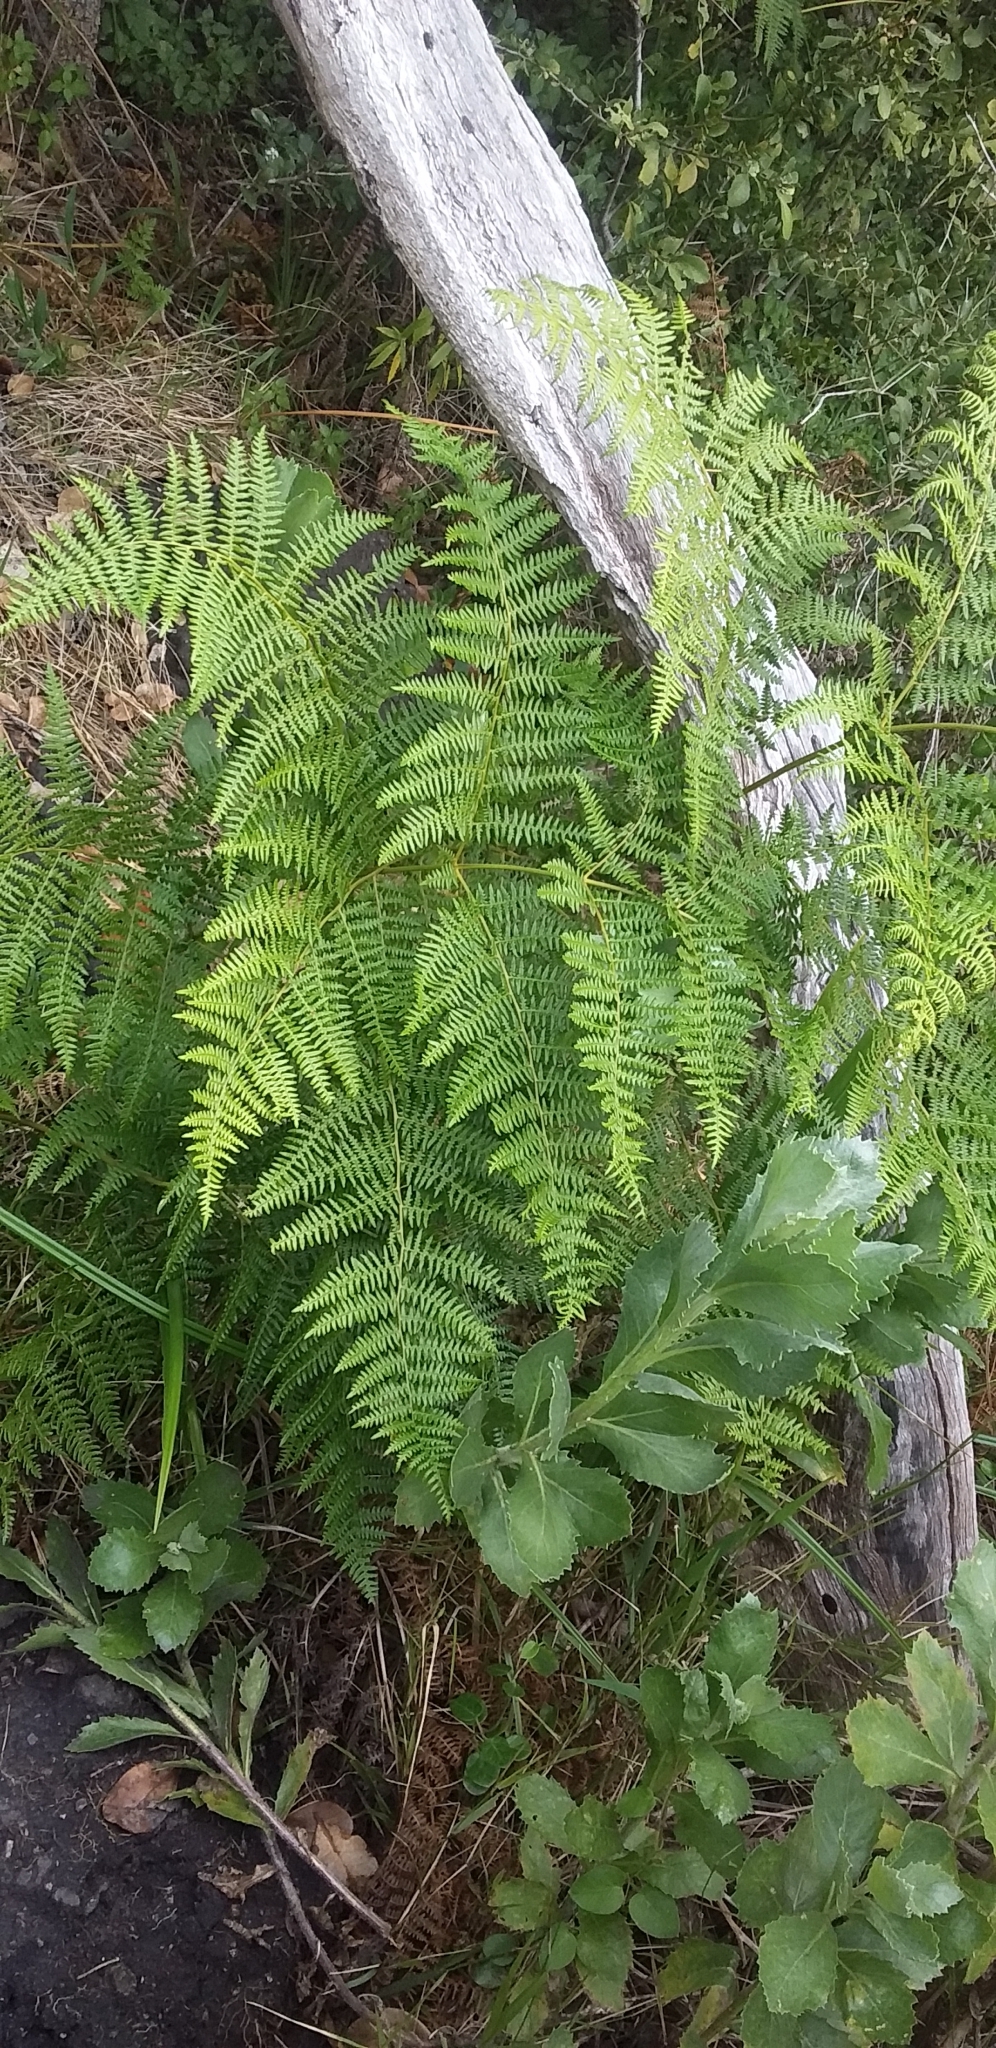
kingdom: Plantae
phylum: Tracheophyta
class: Polypodiopsida
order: Polypodiales
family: Dennstaedtiaceae
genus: Pteridium
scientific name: Pteridium aquilinum
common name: Bracken
